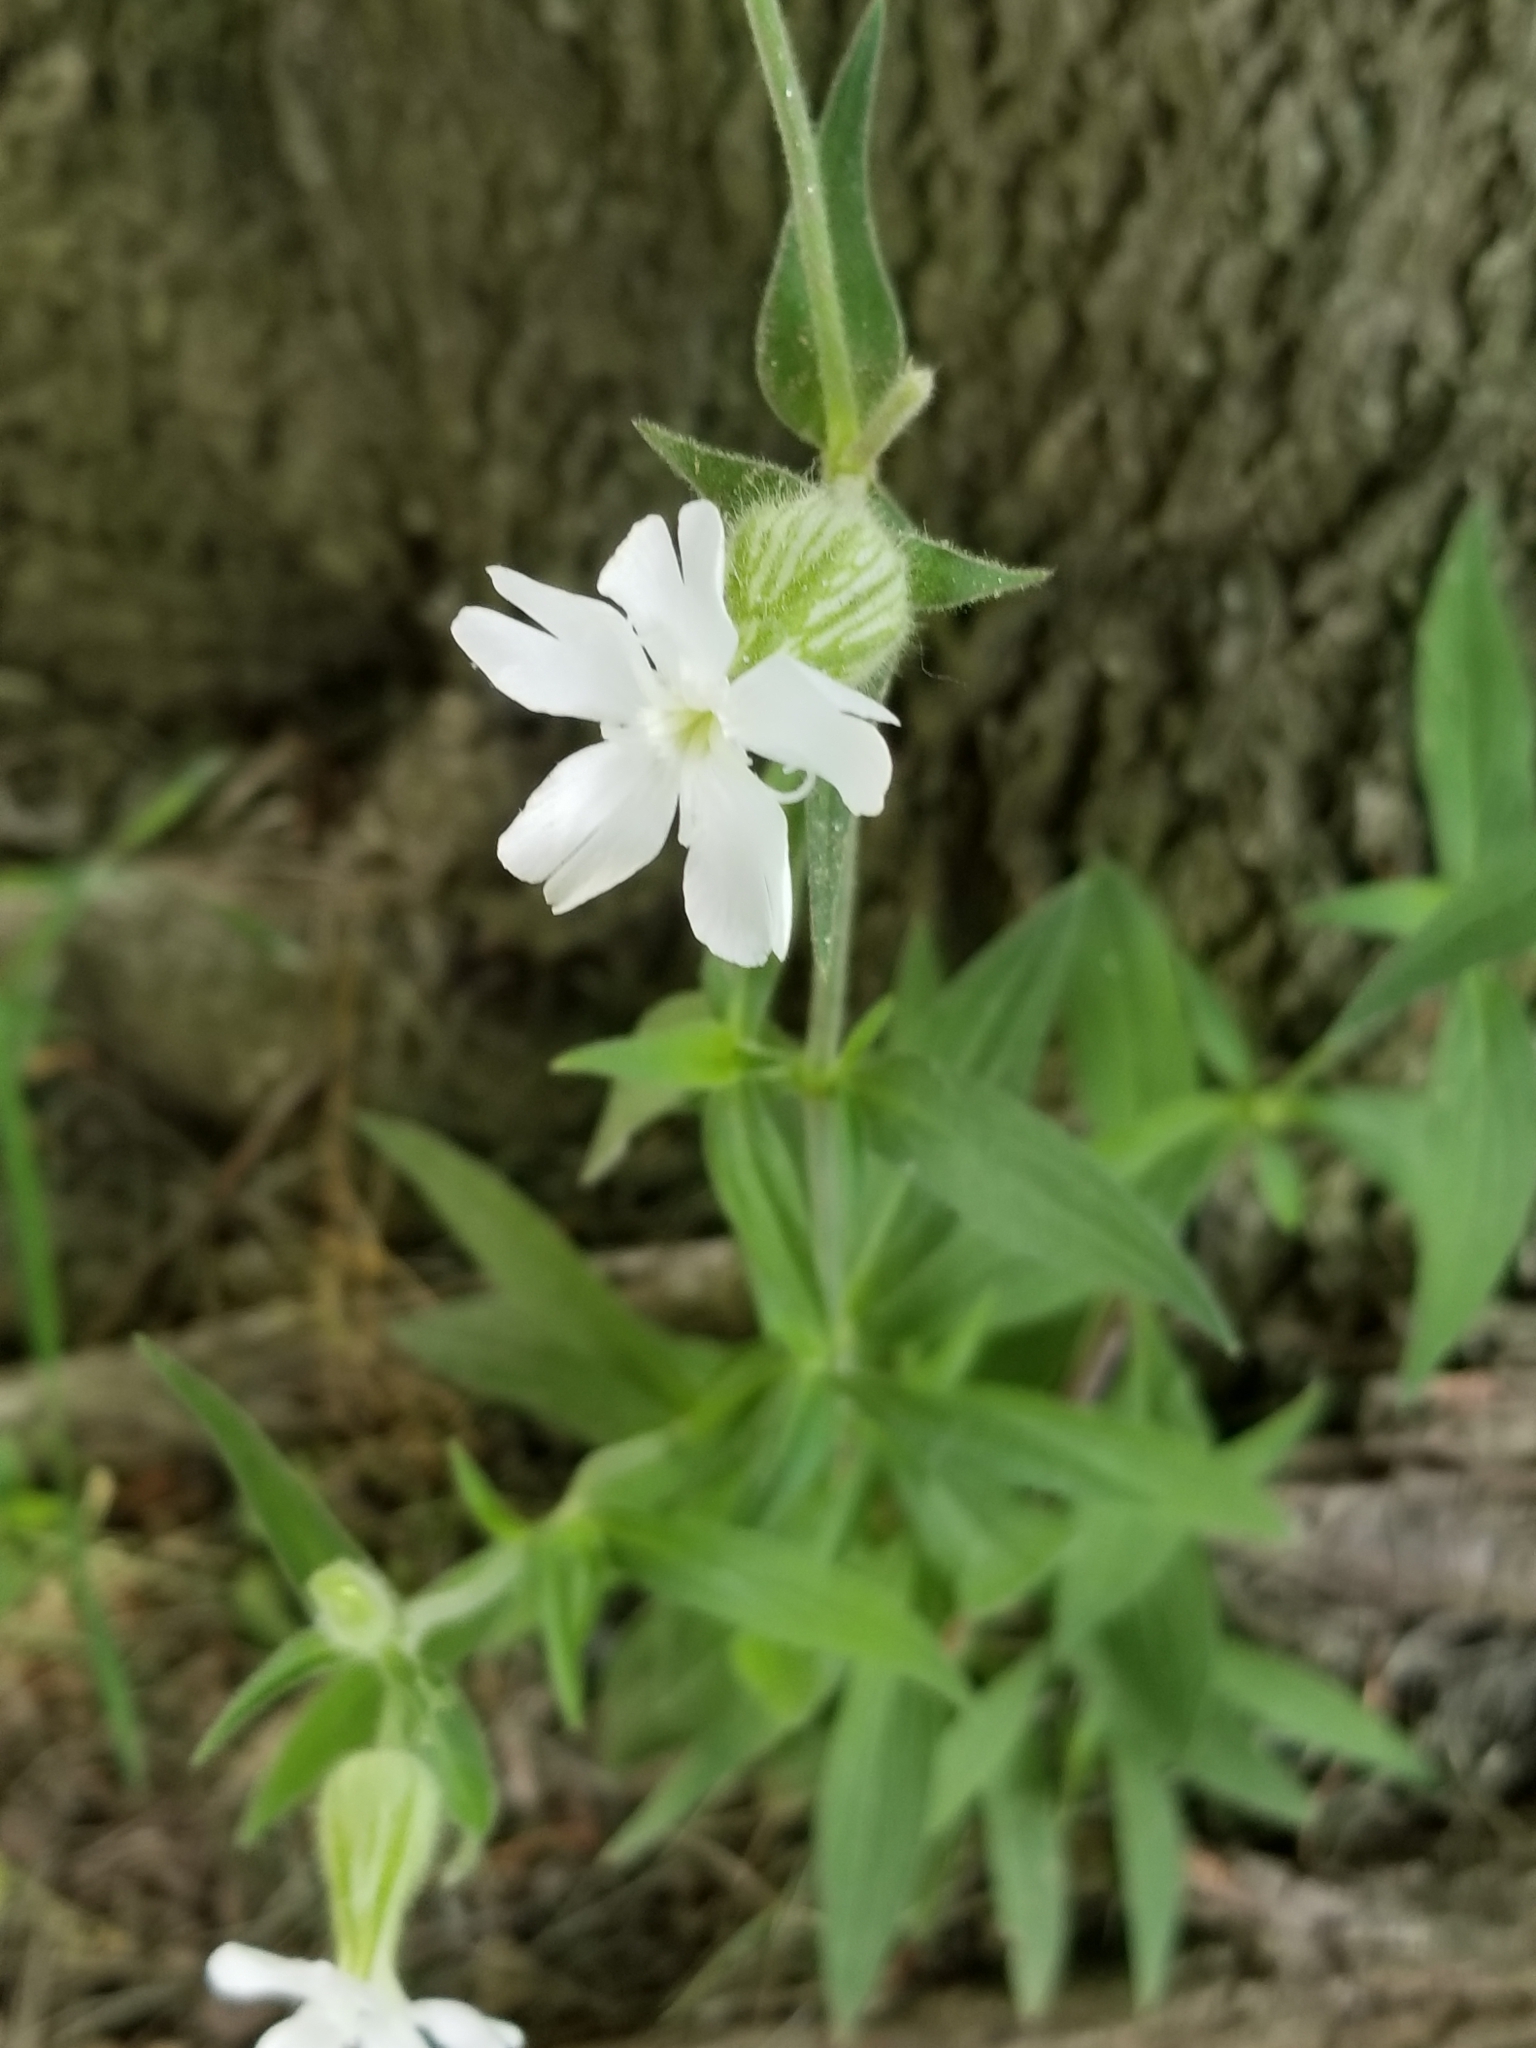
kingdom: Plantae
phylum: Tracheophyta
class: Magnoliopsida
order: Caryophyllales
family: Caryophyllaceae
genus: Silene
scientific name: Silene latifolia
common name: White campion
